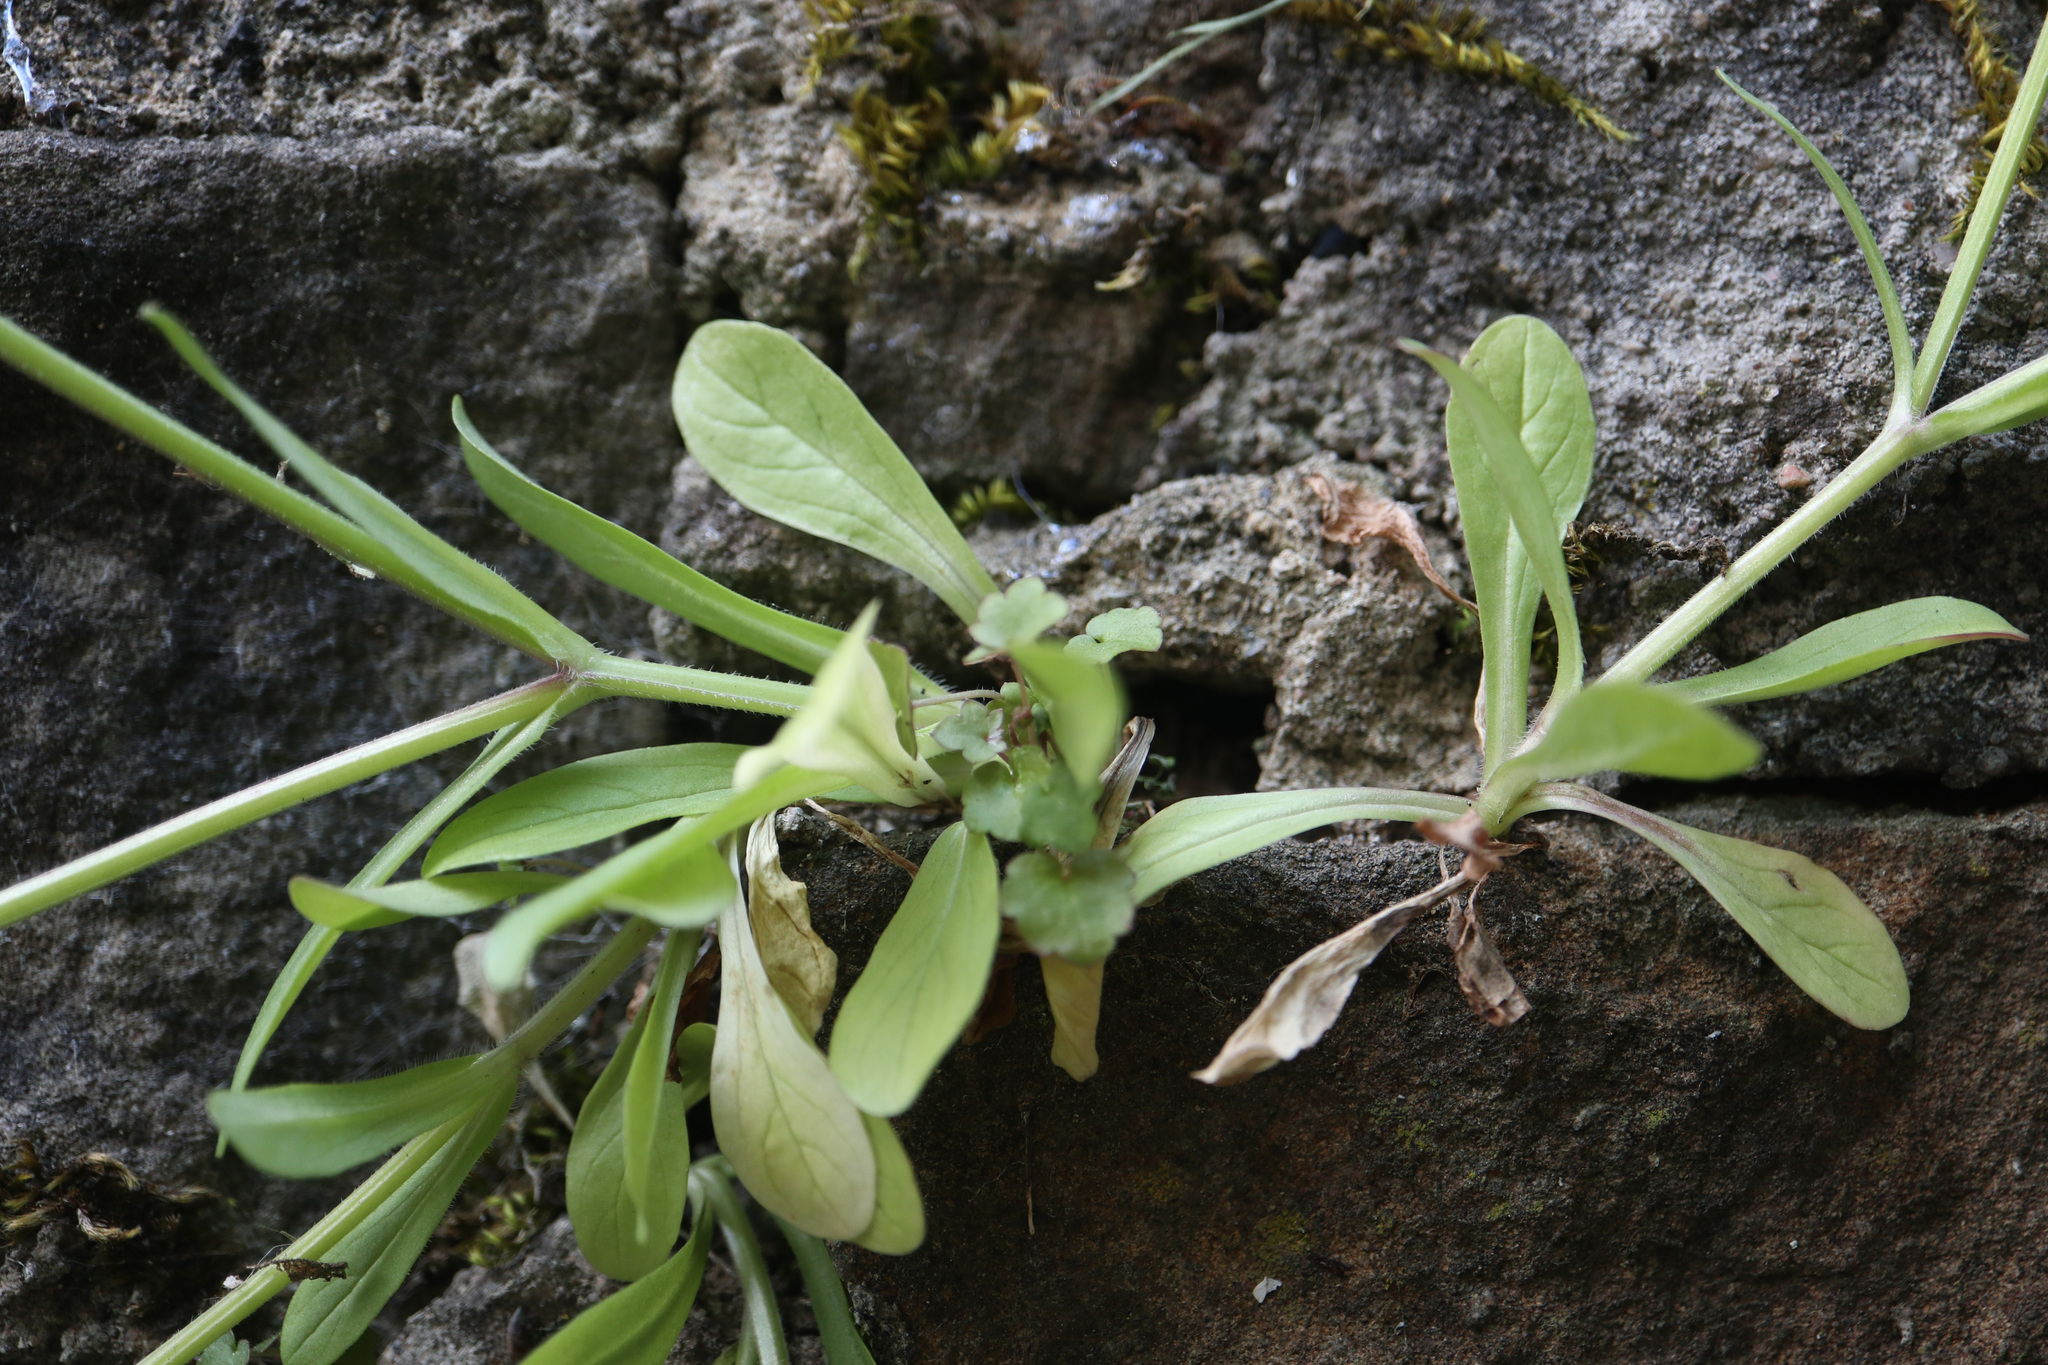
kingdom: Plantae
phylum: Tracheophyta
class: Magnoliopsida
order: Dipsacales
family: Caprifoliaceae
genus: Valerianella
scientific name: Valerianella locusta
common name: Common cornsalad
